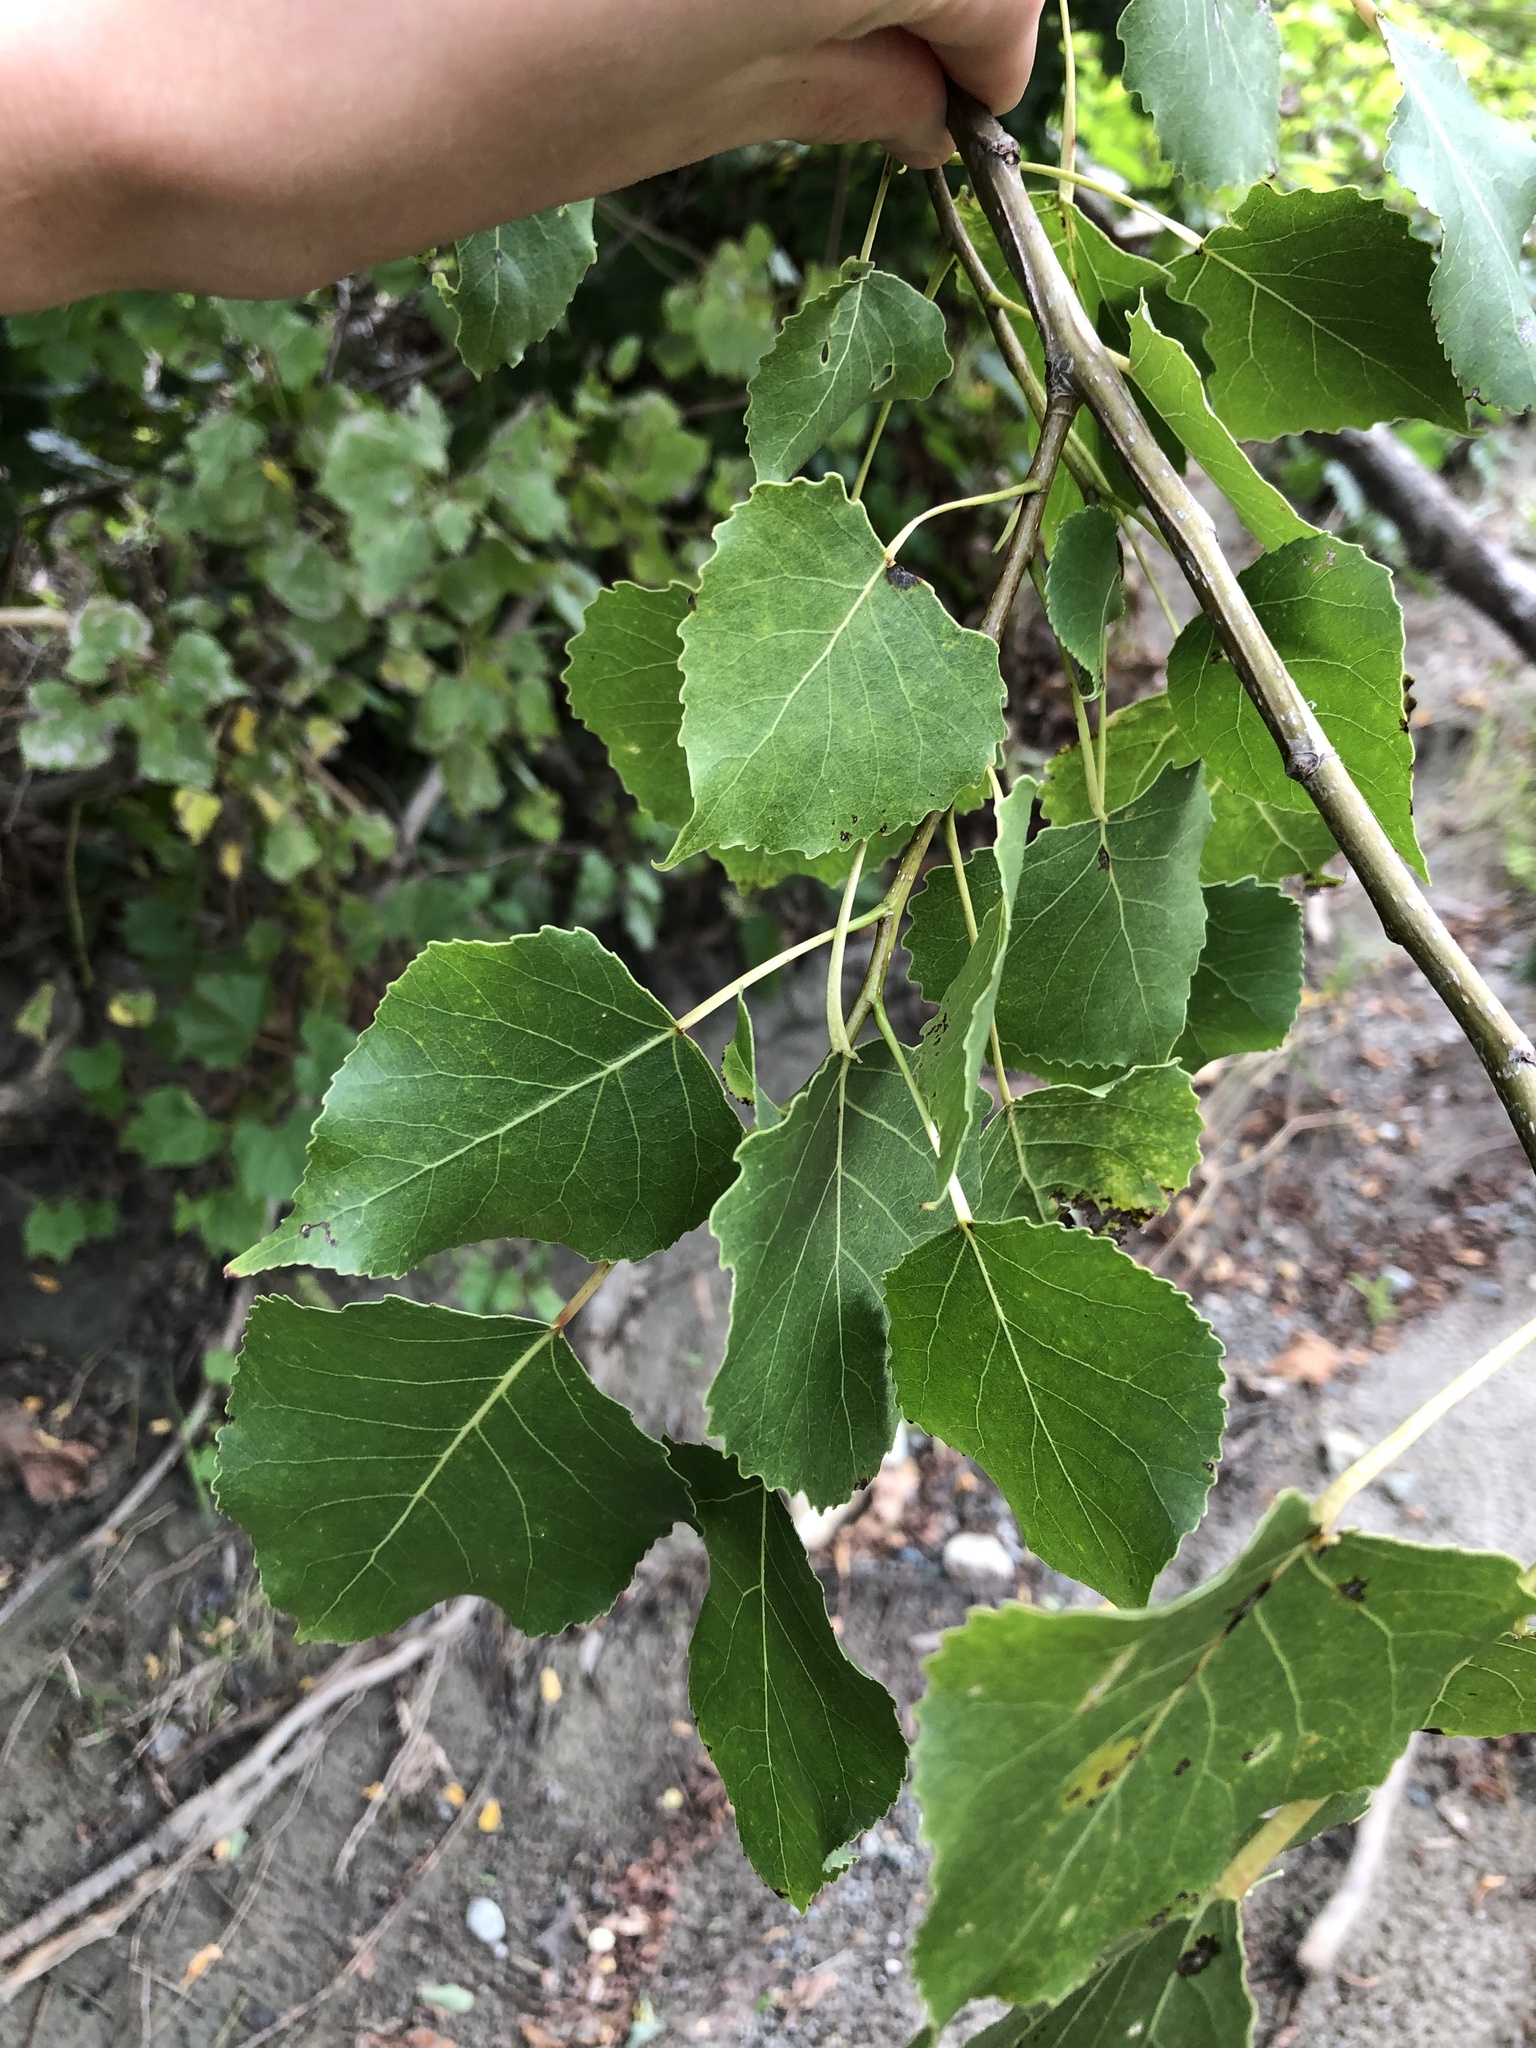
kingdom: Plantae
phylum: Tracheophyta
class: Magnoliopsida
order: Malpighiales
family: Salicaceae
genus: Populus
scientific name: Populus deltoides
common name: Eastern cottonwood
